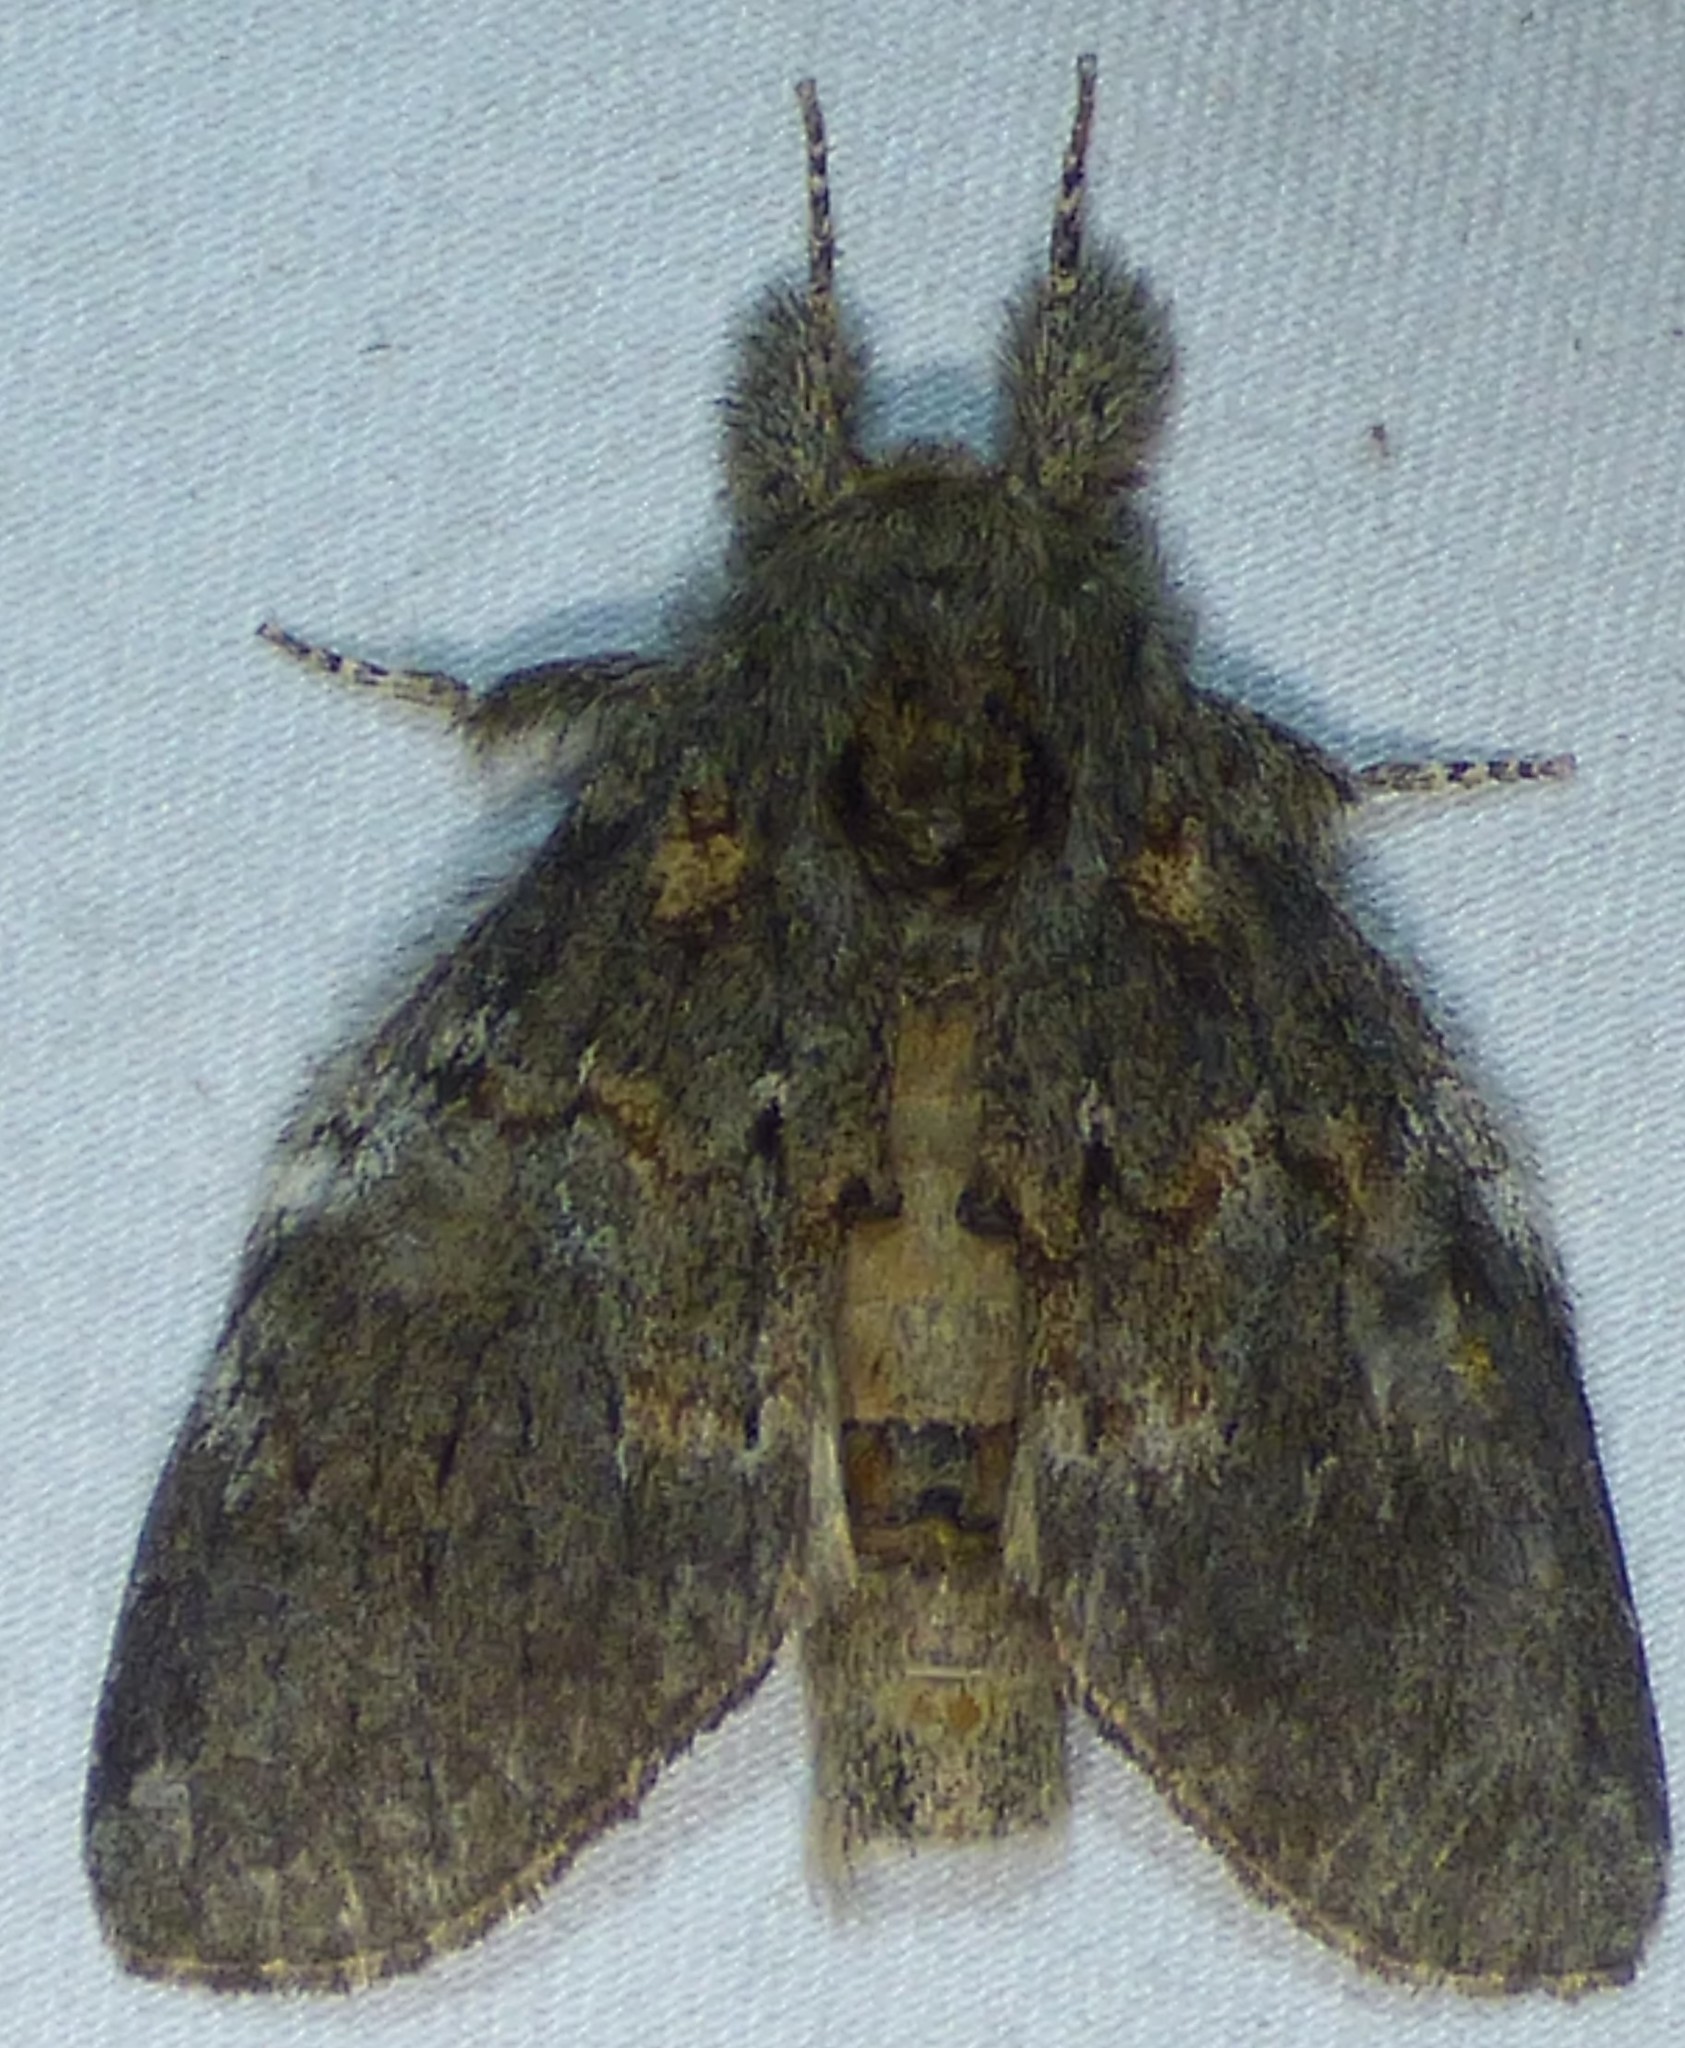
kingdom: Animalia
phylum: Arthropoda
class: Insecta
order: Lepidoptera
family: Notodontidae
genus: Peridea
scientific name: Peridea angulosa
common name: Angulose prominent
